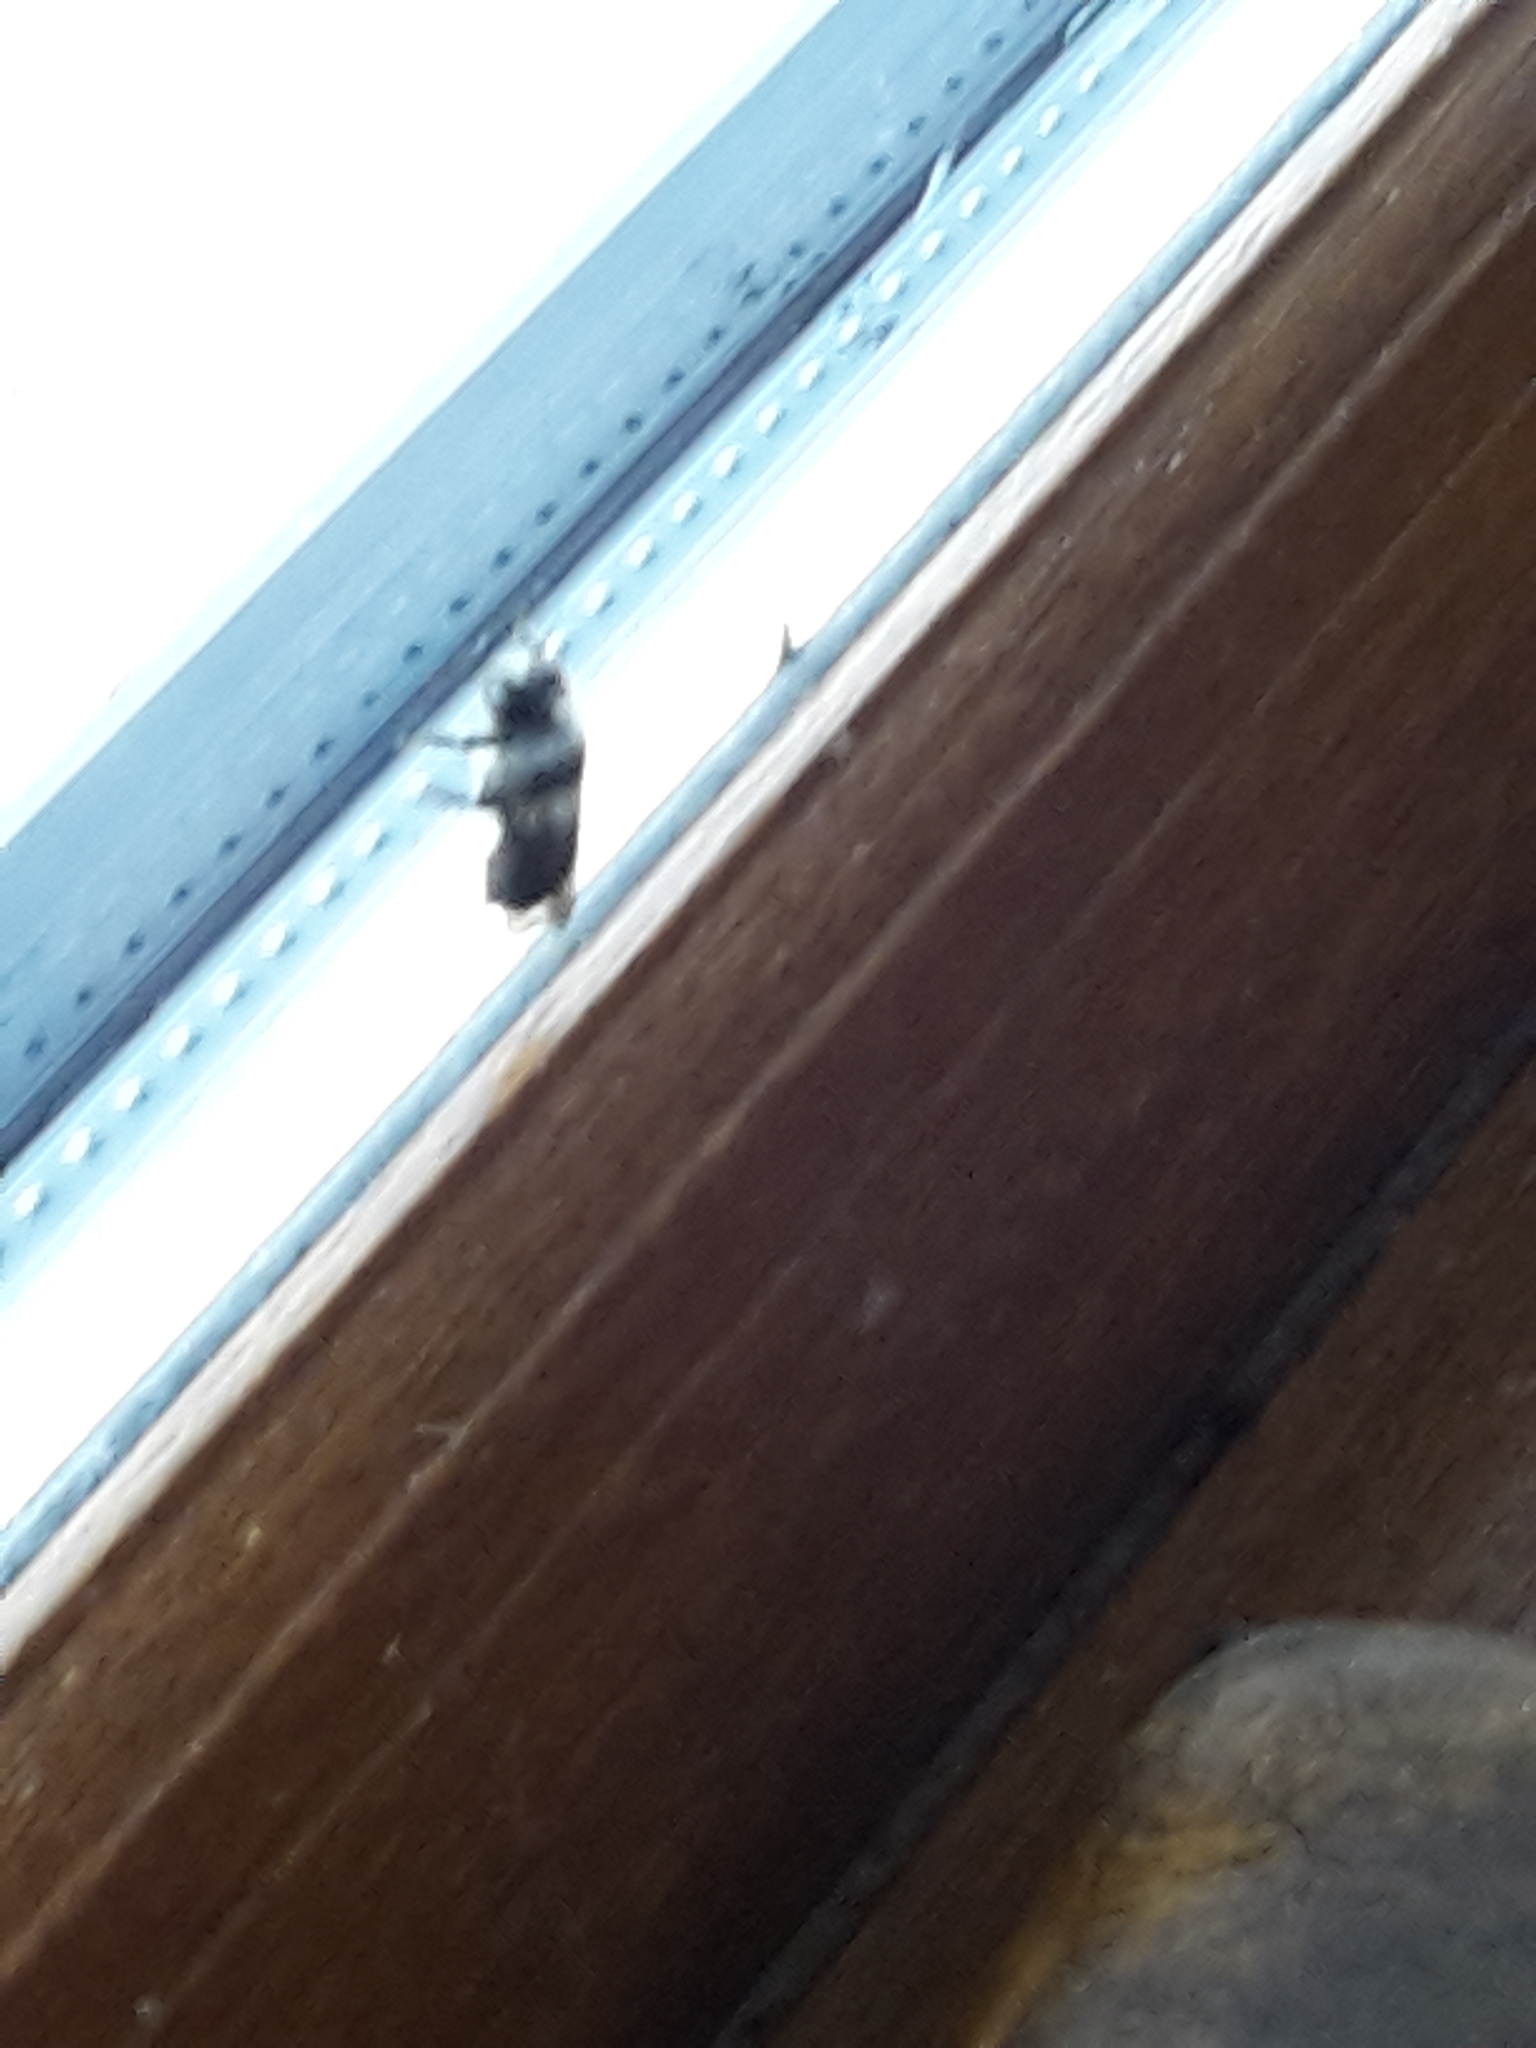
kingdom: Animalia
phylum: Arthropoda
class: Insecta
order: Hymenoptera
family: Andrenidae
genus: Andrena
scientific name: Andrena cineraria
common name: Ashy mining bee
